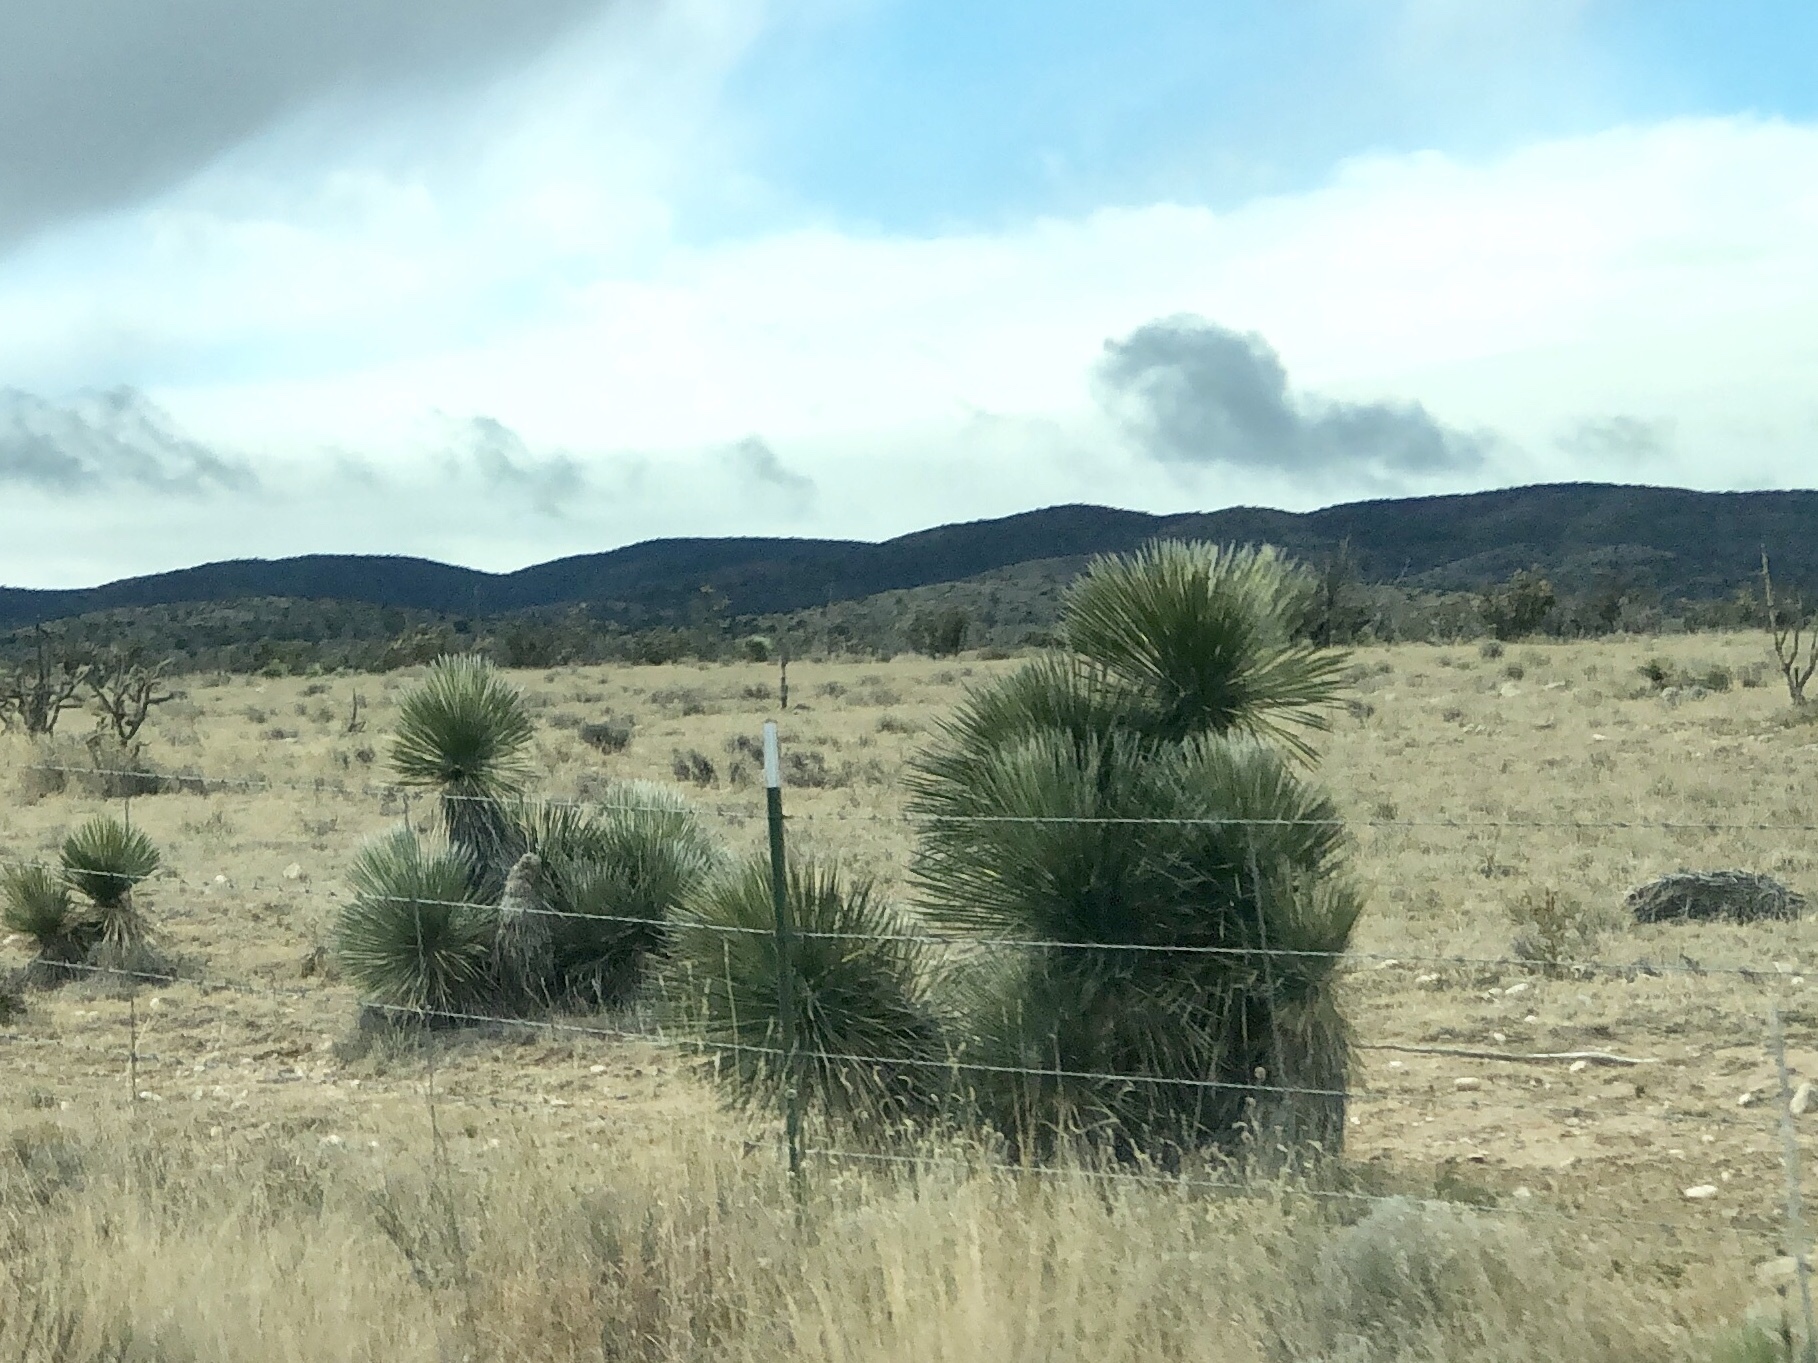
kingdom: Plantae
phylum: Tracheophyta
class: Liliopsida
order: Asparagales
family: Asparagaceae
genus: Yucca
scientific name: Yucca elata
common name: Palmella
